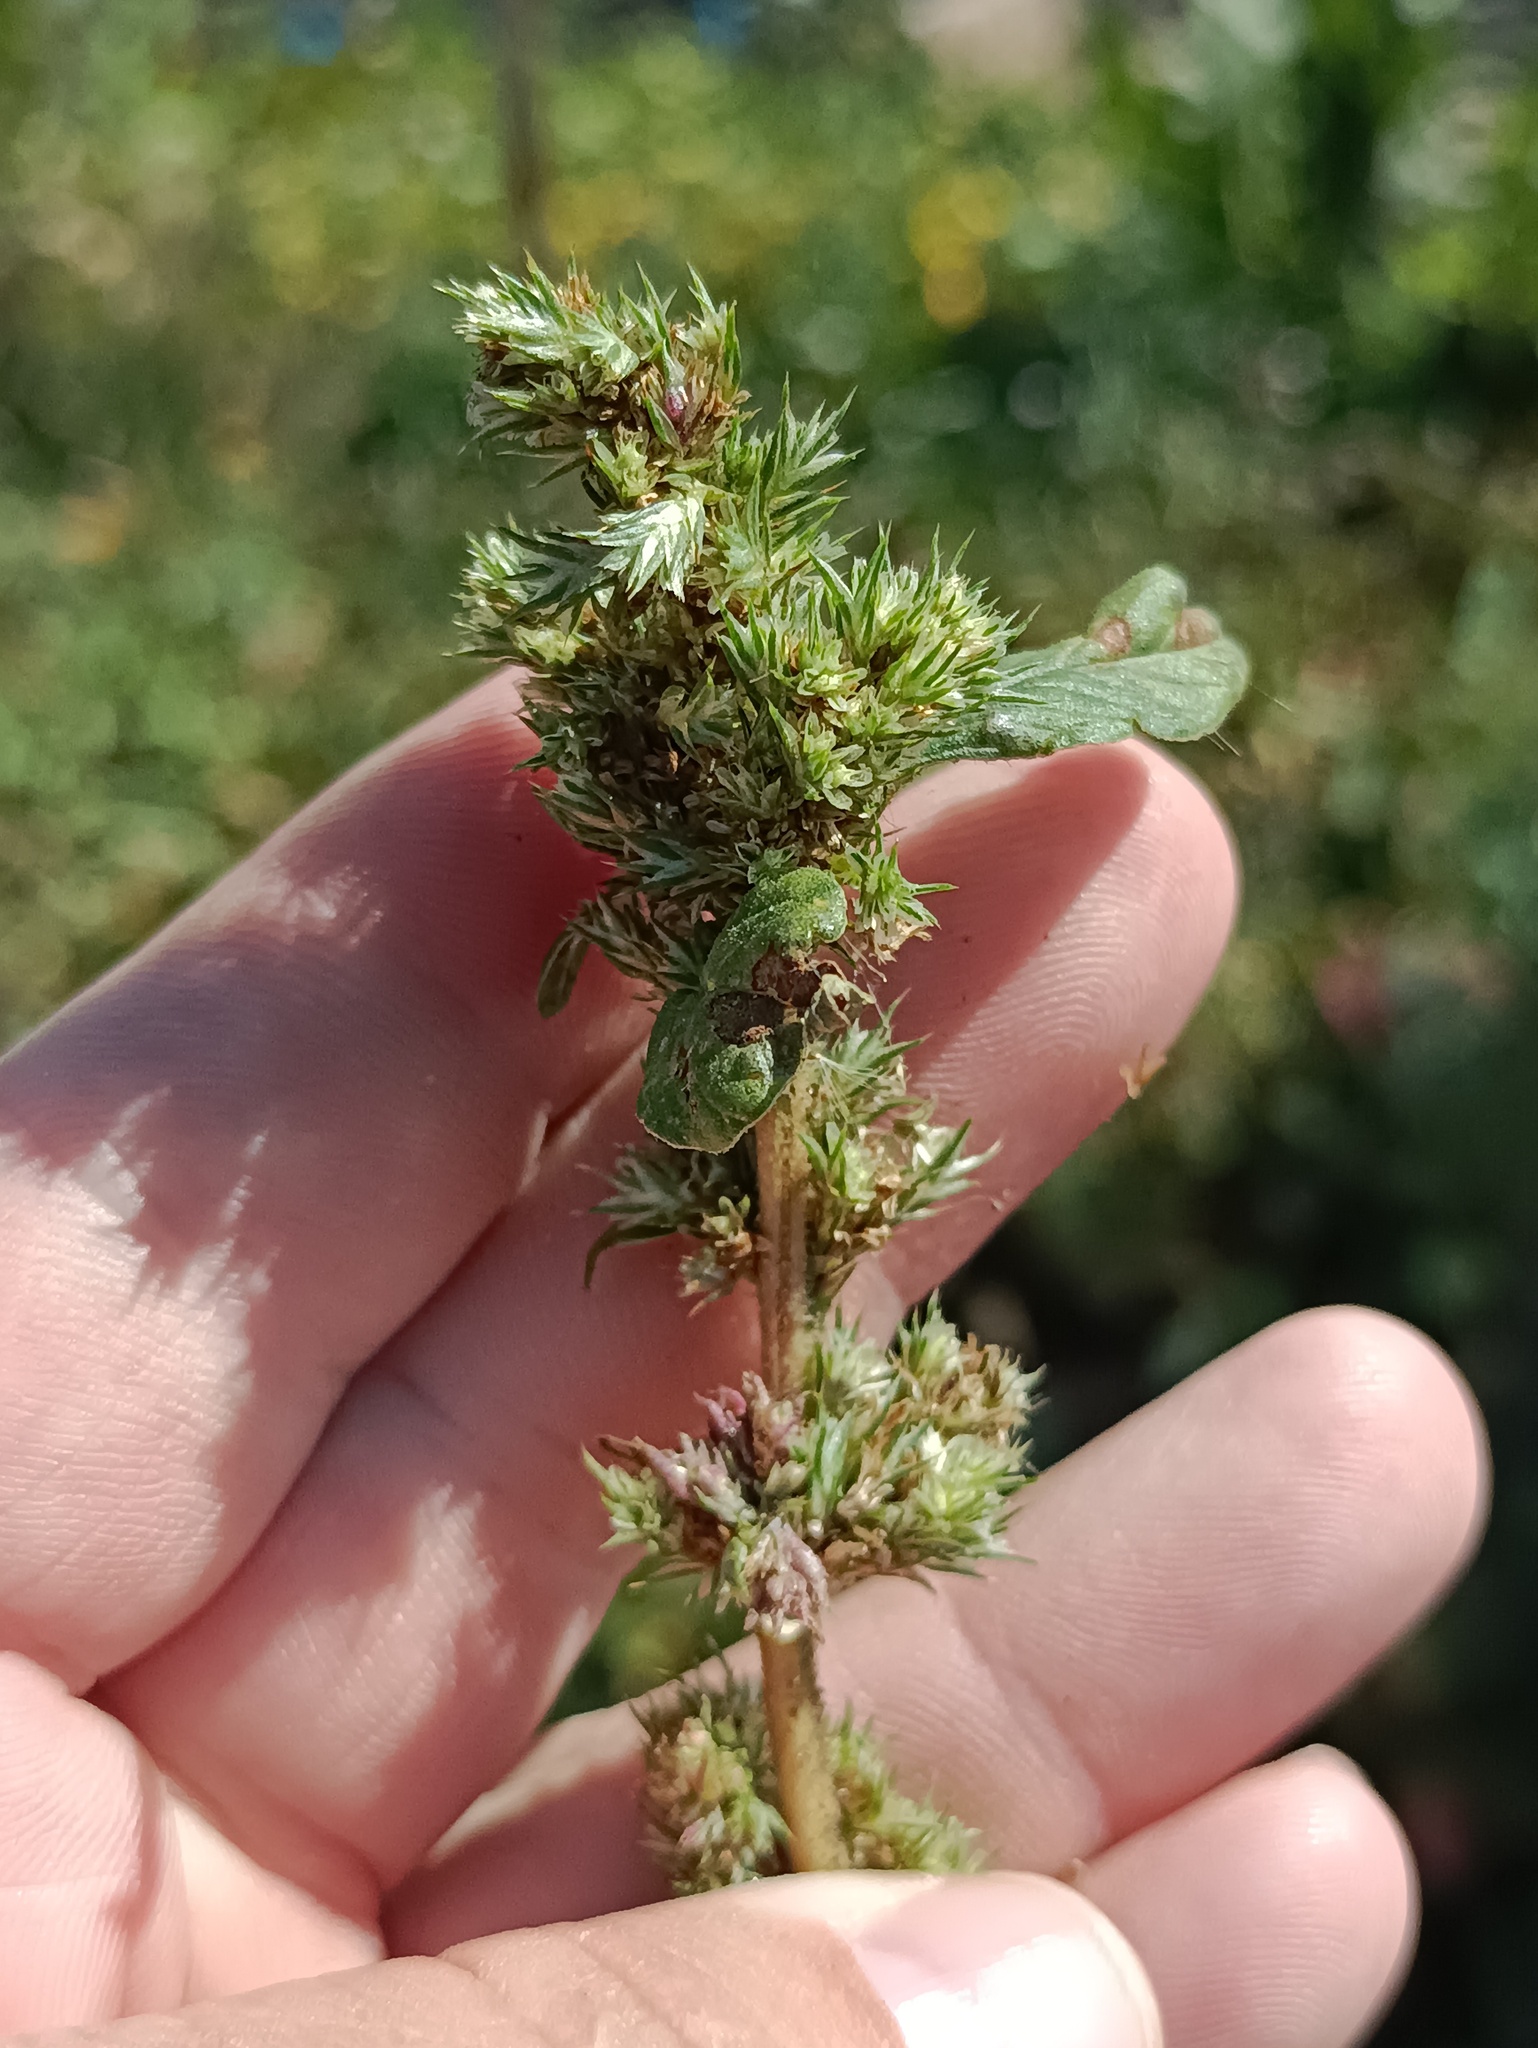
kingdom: Plantae
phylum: Tracheophyta
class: Magnoliopsida
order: Caryophyllales
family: Amaranthaceae
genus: Amaranthus
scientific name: Amaranthus retroflexus
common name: Redroot amaranth
